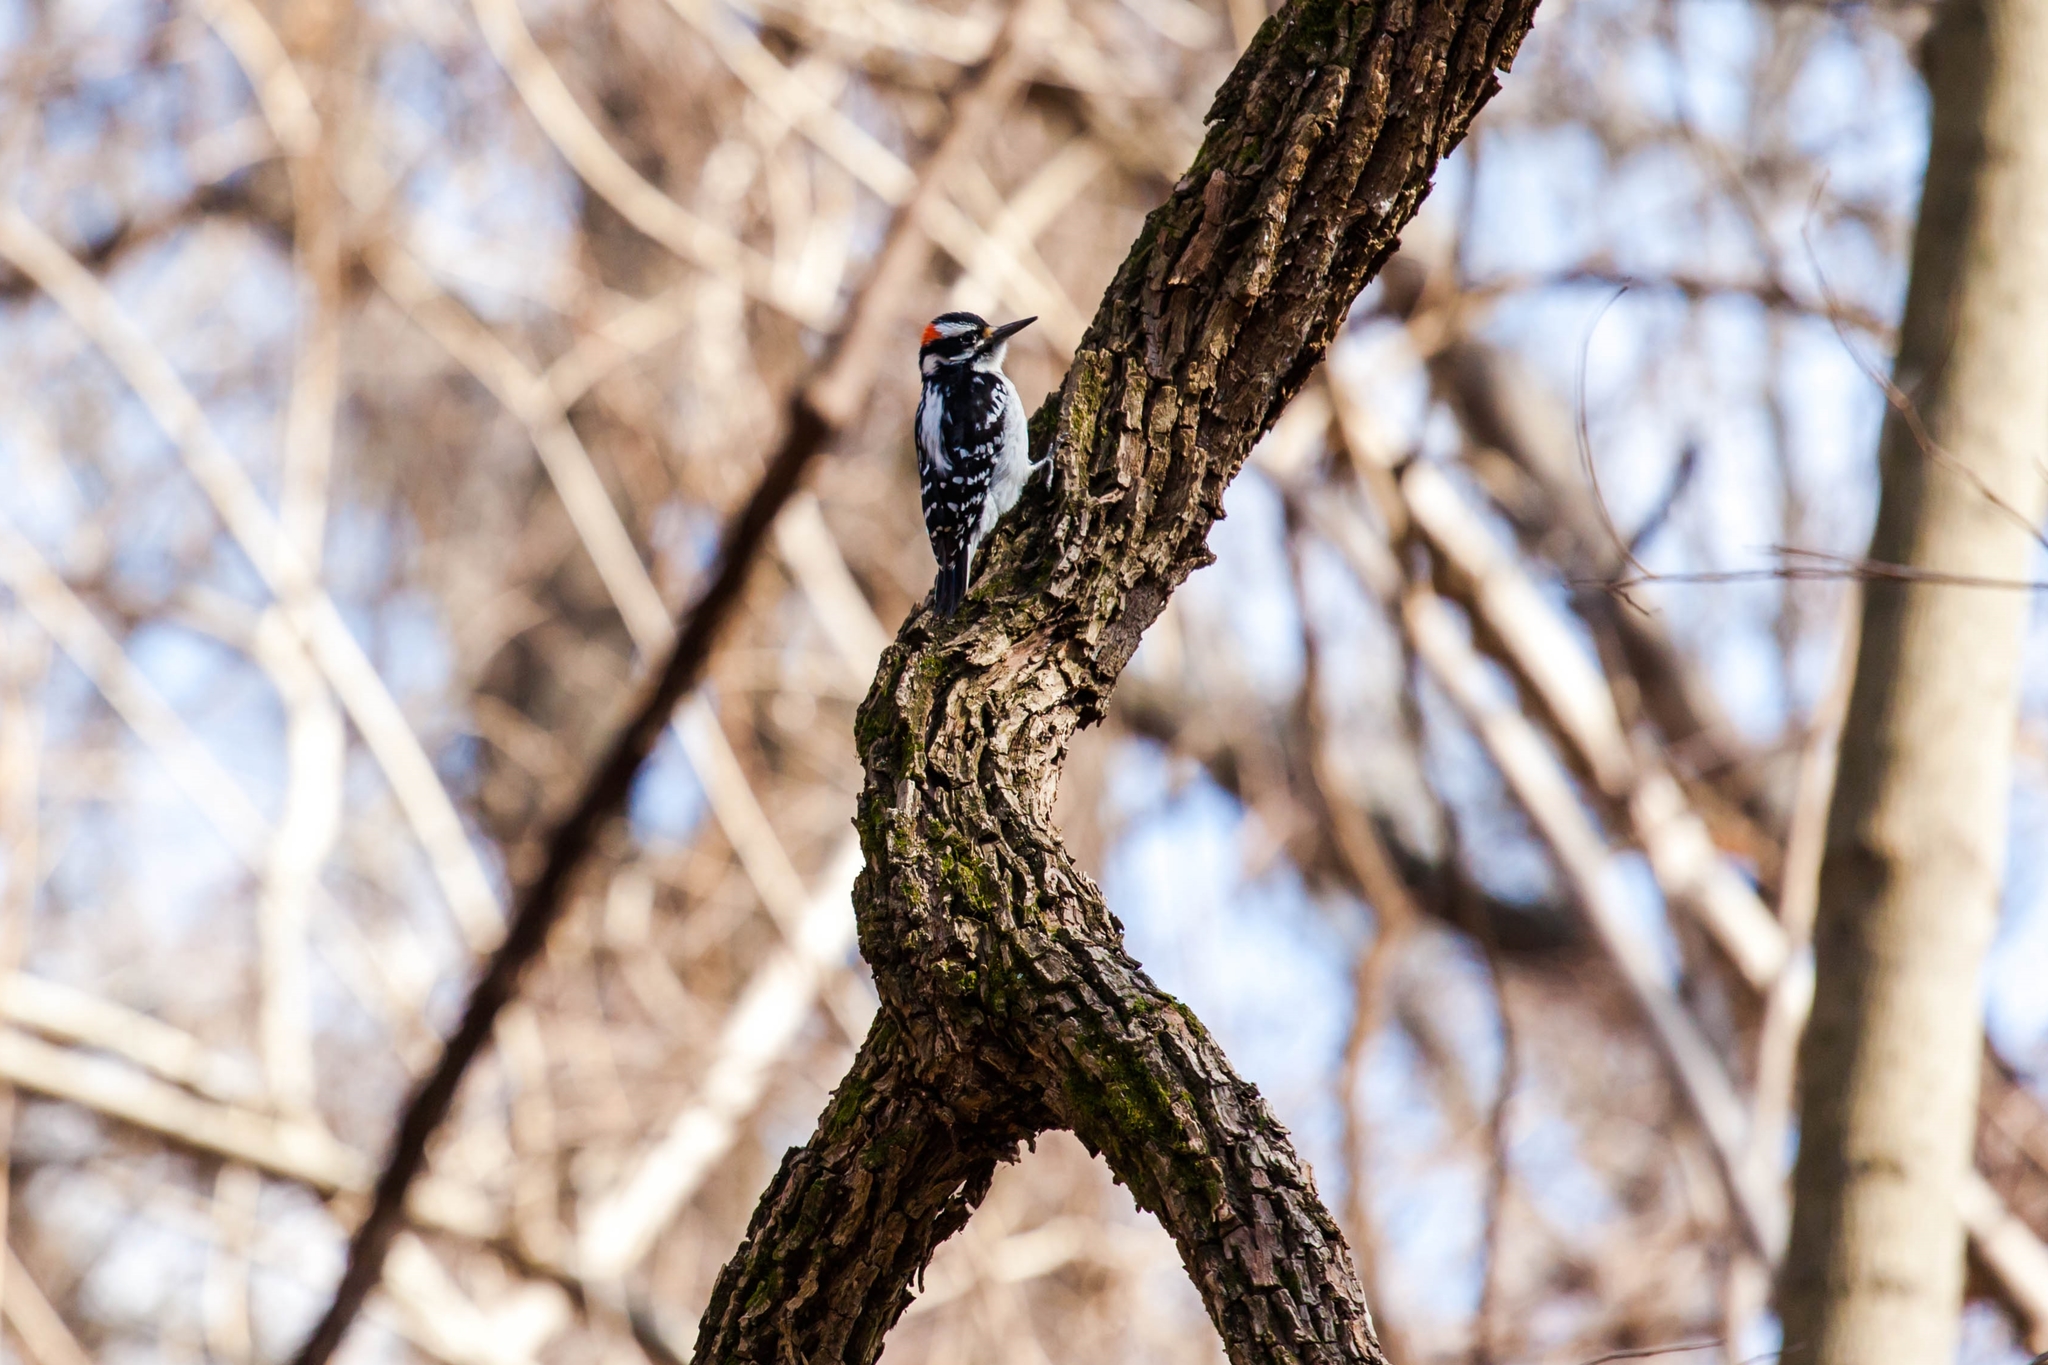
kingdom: Animalia
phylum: Chordata
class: Aves
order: Piciformes
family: Picidae
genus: Leuconotopicus
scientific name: Leuconotopicus villosus
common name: Hairy woodpecker
